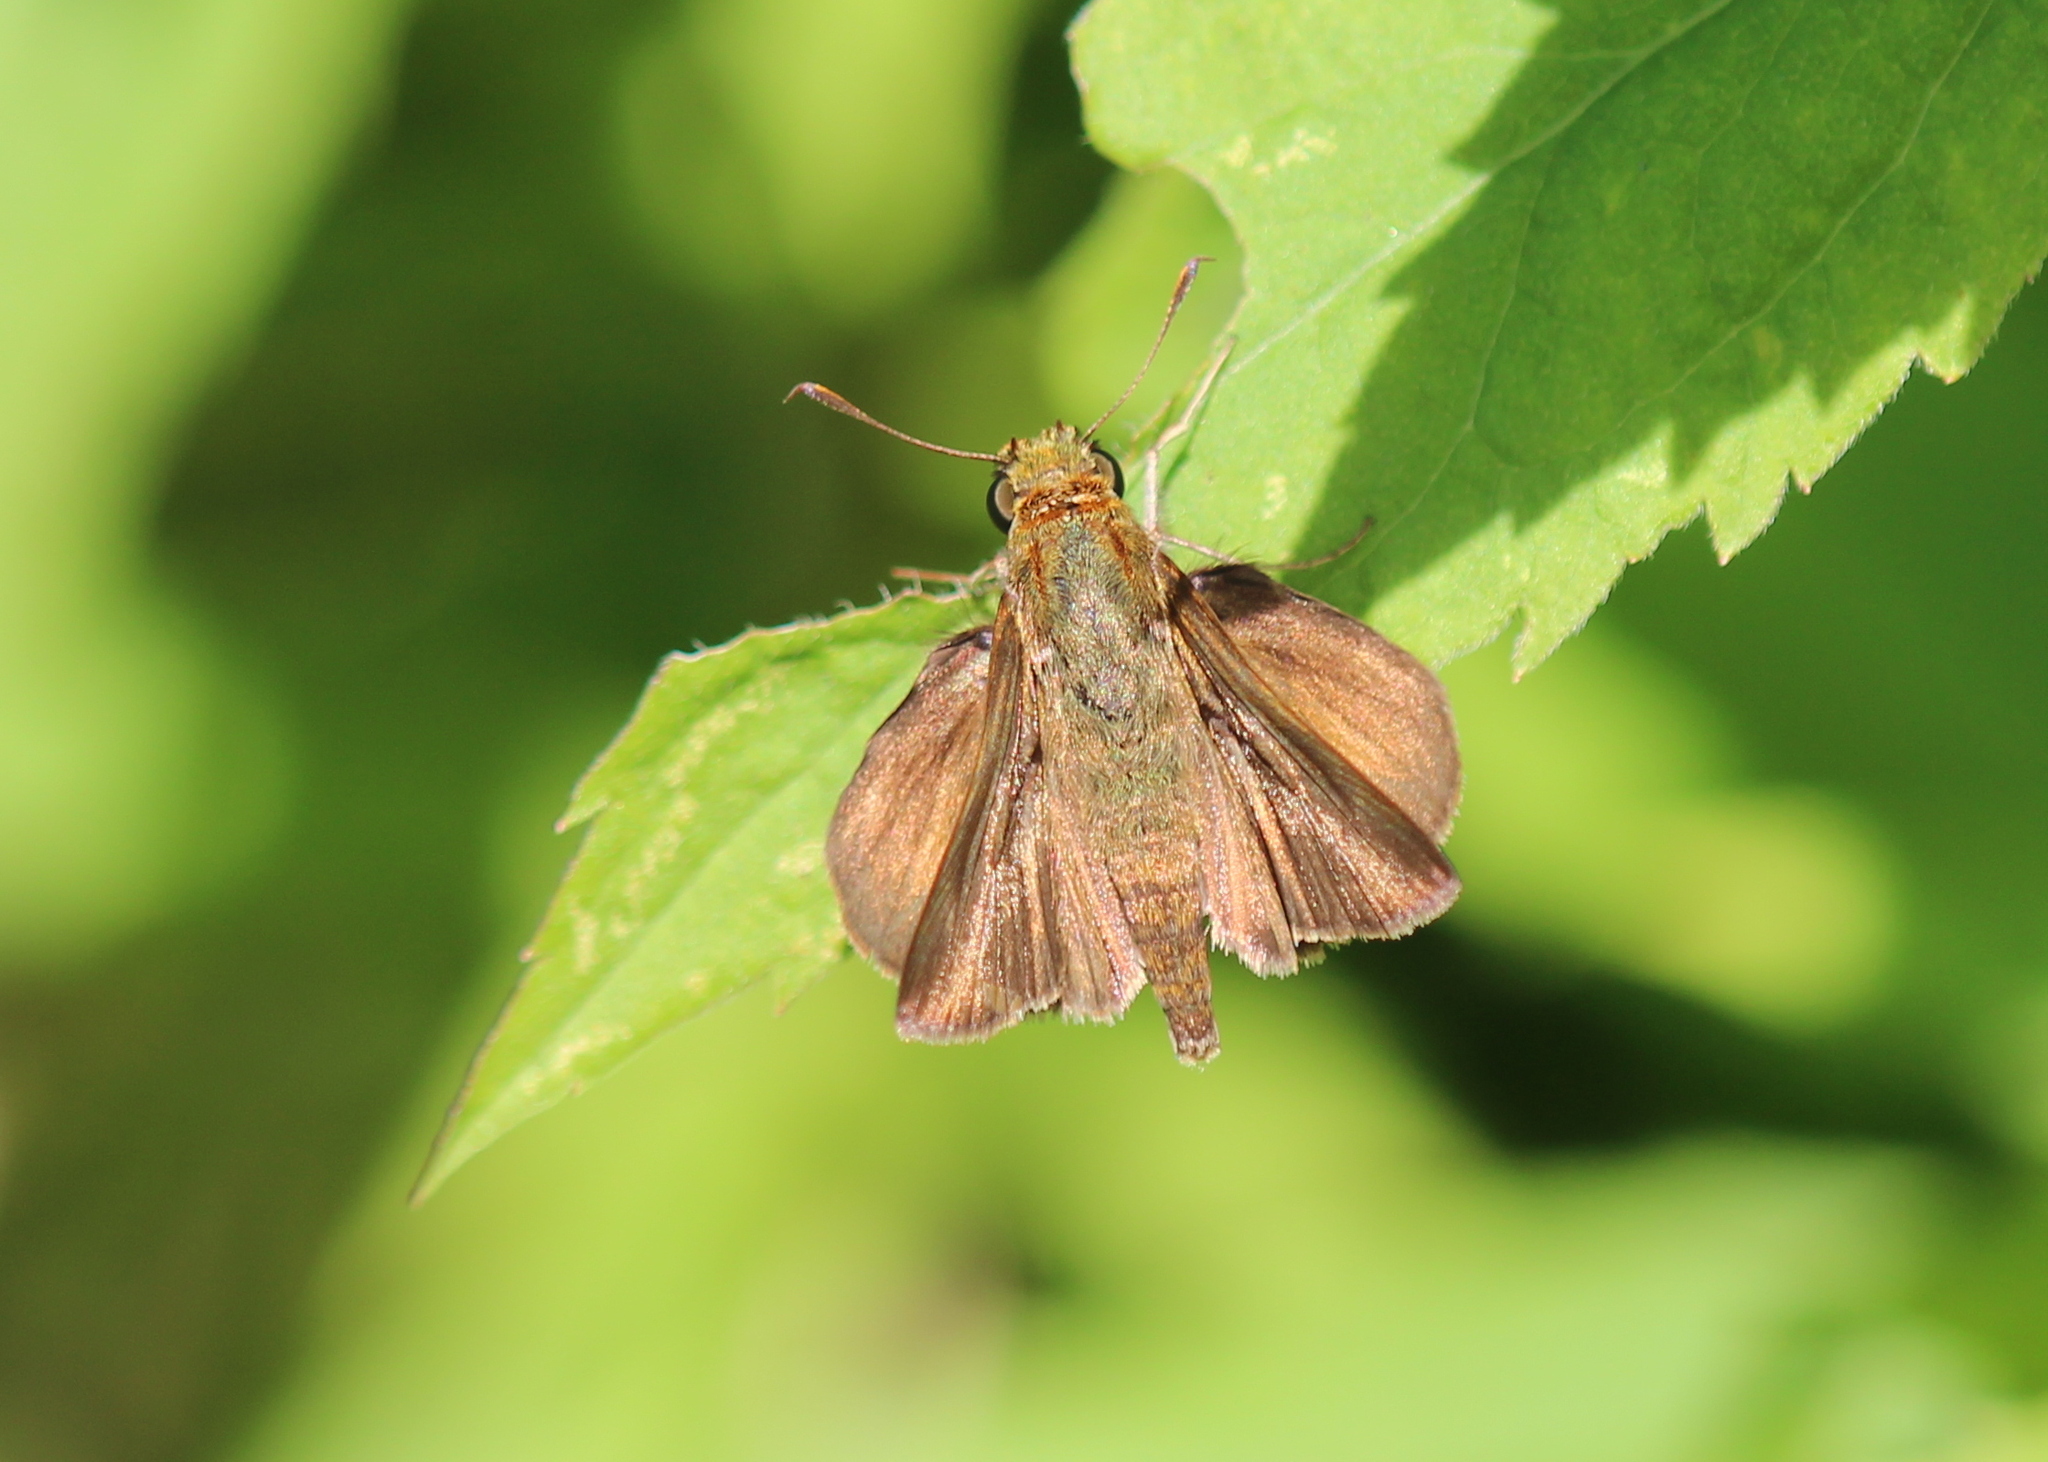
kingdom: Animalia
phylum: Arthropoda
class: Insecta
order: Lepidoptera
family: Hesperiidae
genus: Euphyes
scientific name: Euphyes vestris
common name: Dun skipper
